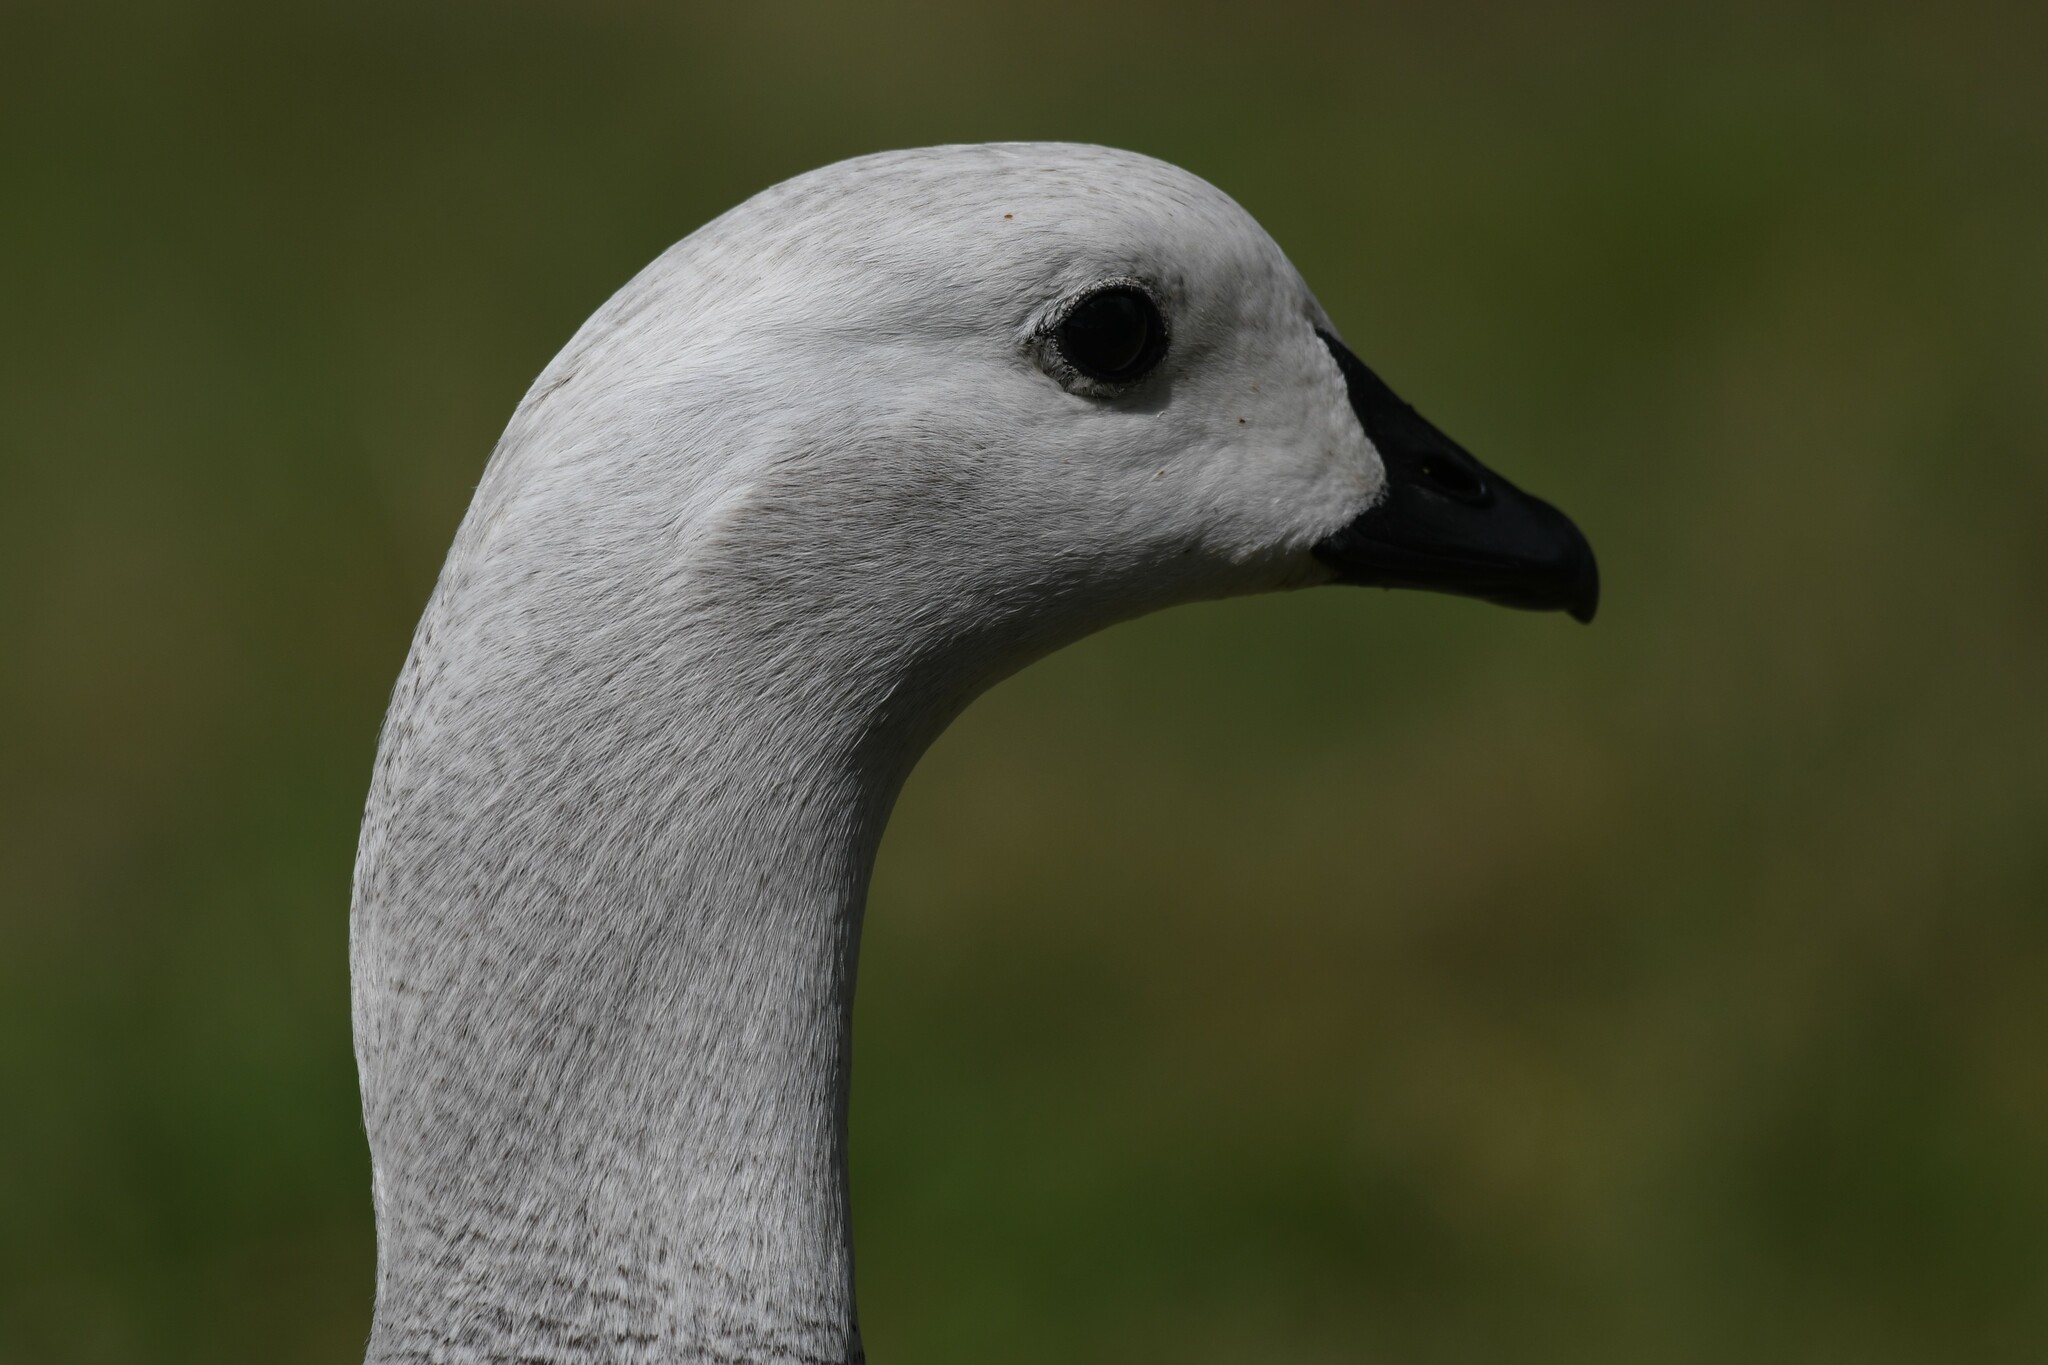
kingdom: Animalia
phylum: Chordata
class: Aves
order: Anseriformes
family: Anatidae
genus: Chloephaga
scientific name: Chloephaga picta
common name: Upland goose
